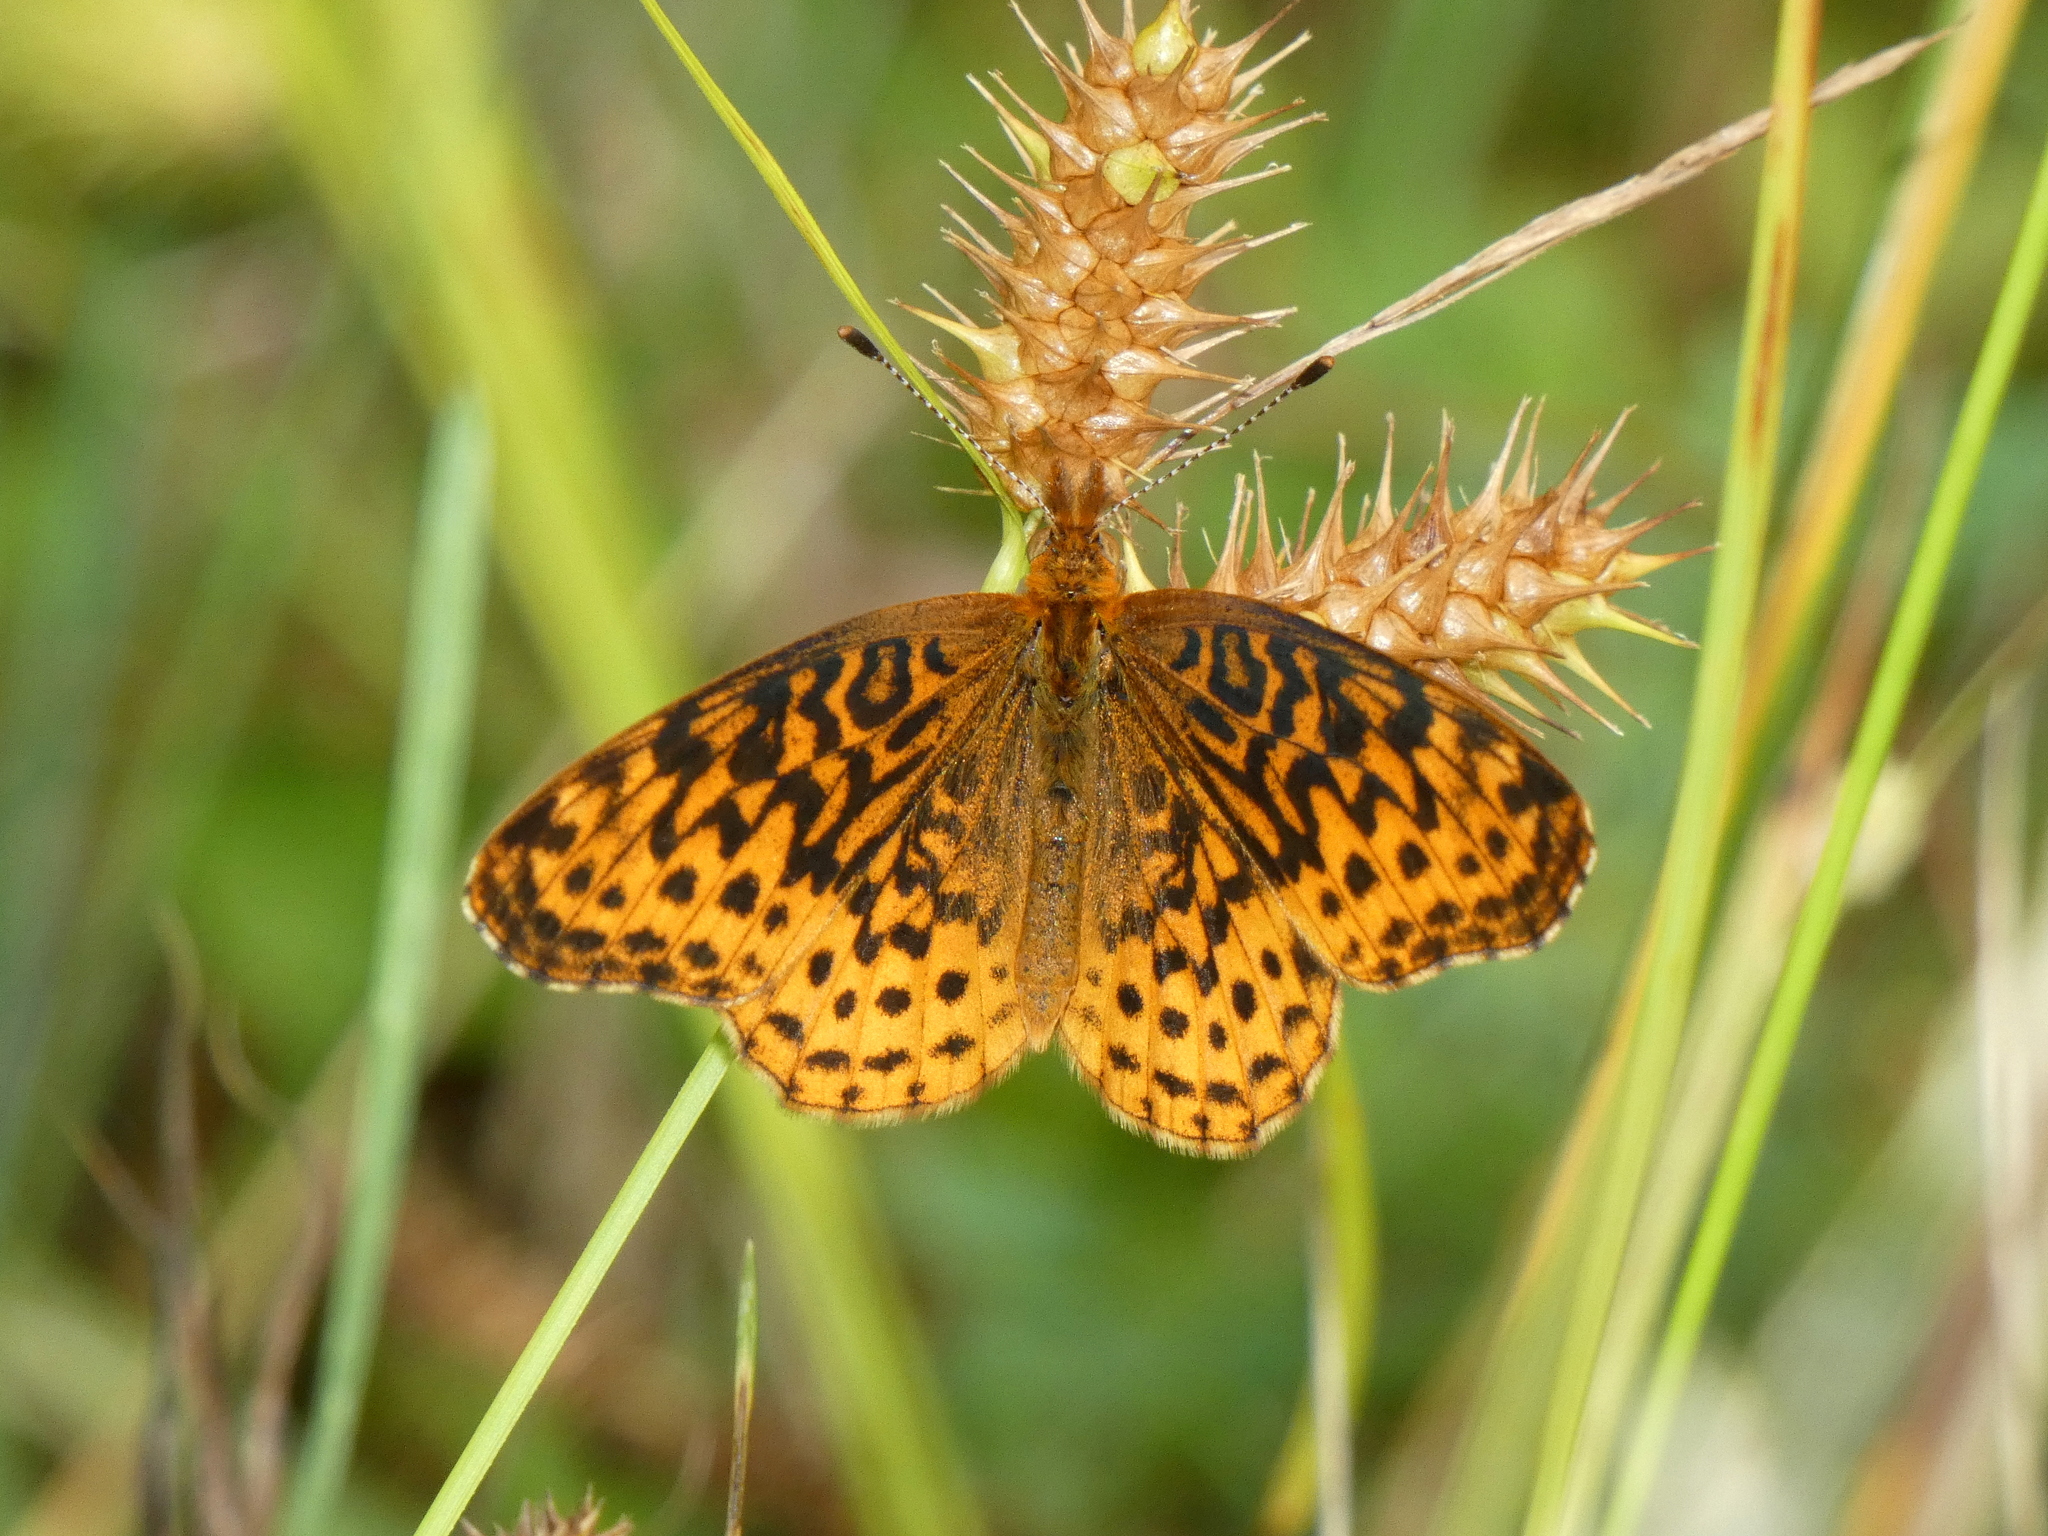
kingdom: Animalia
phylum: Arthropoda
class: Insecta
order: Lepidoptera
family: Nymphalidae
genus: Clossiana
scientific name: Clossiana toddi
